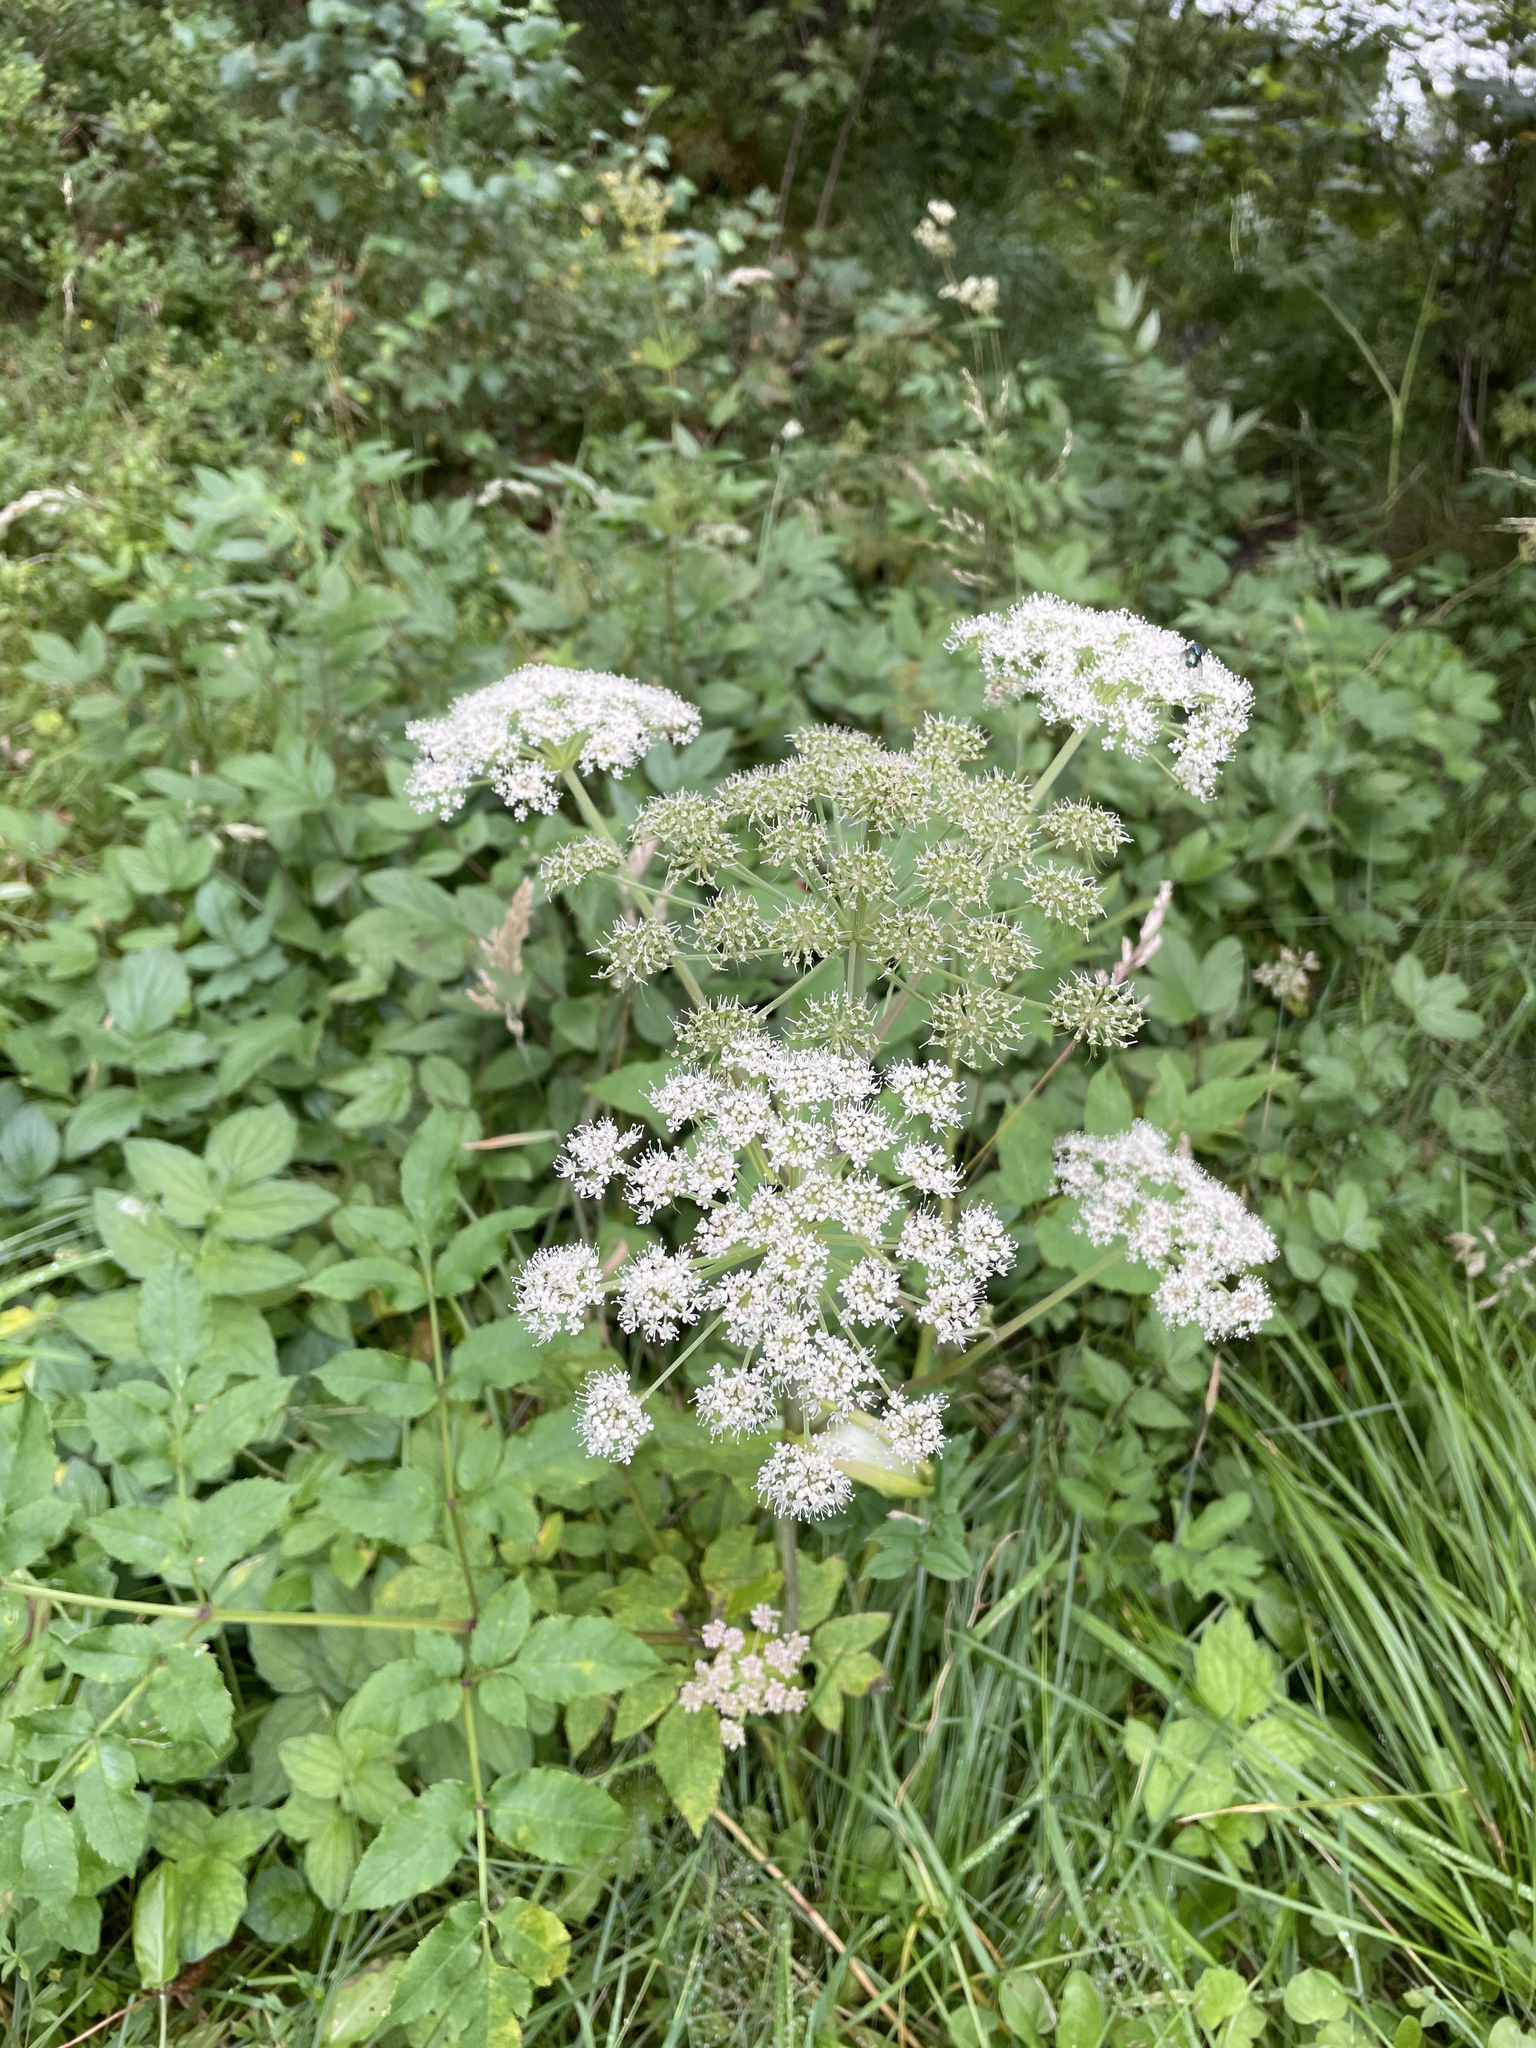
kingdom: Plantae
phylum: Tracheophyta
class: Magnoliopsida
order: Apiales
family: Apiaceae
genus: Angelica
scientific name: Angelica sylvestris
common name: Wild angelica
